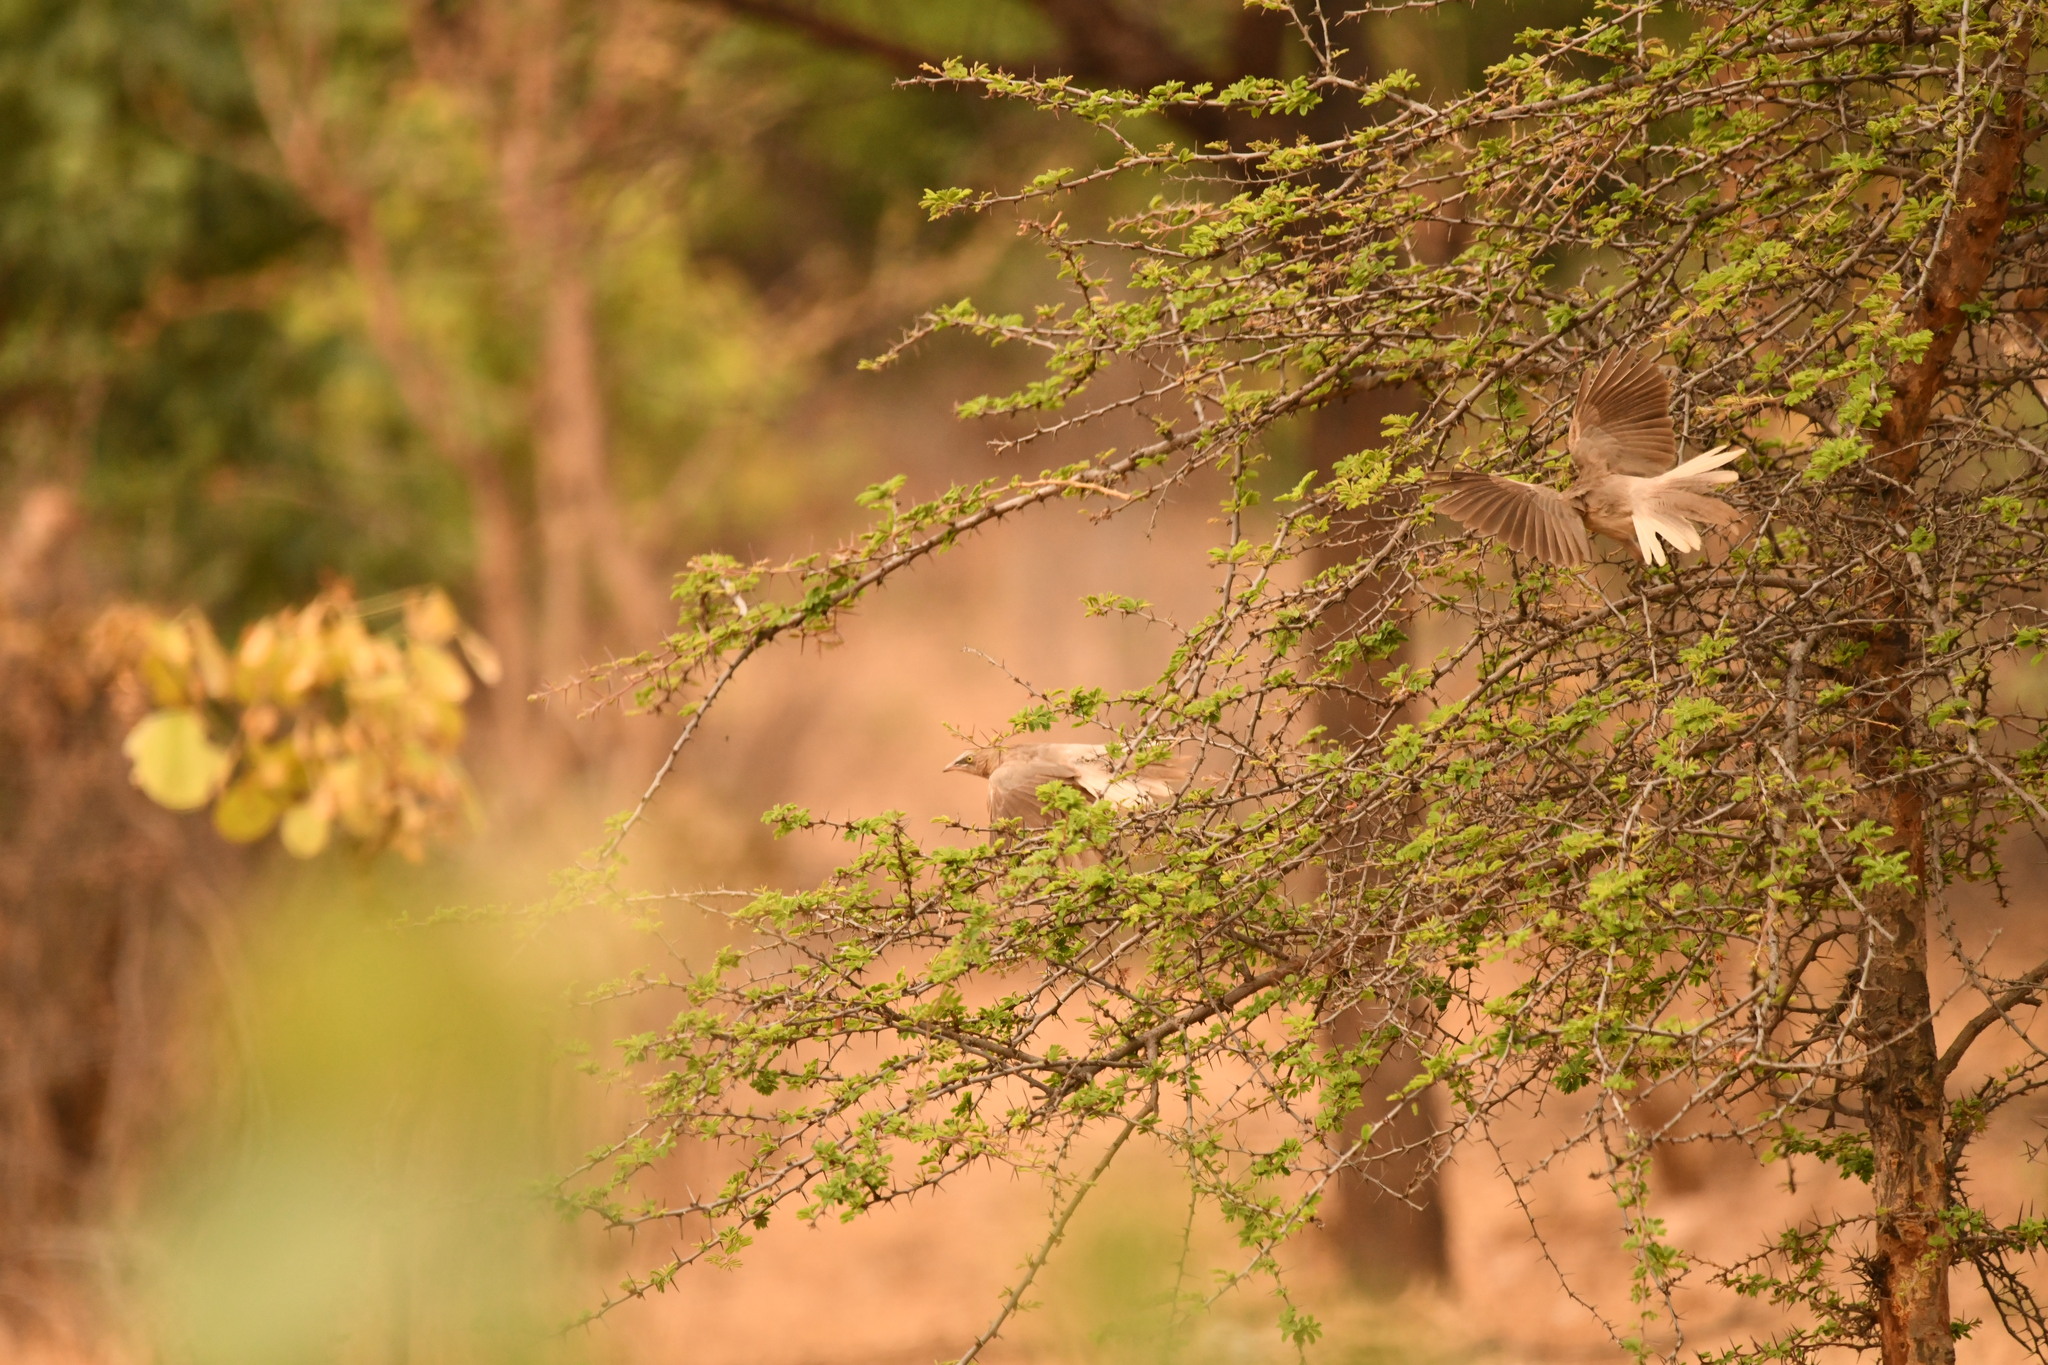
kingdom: Animalia
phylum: Chordata
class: Aves
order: Passeriformes
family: Leiothrichidae
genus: Turdoides
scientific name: Turdoides malcolmi
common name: Large grey babbler
